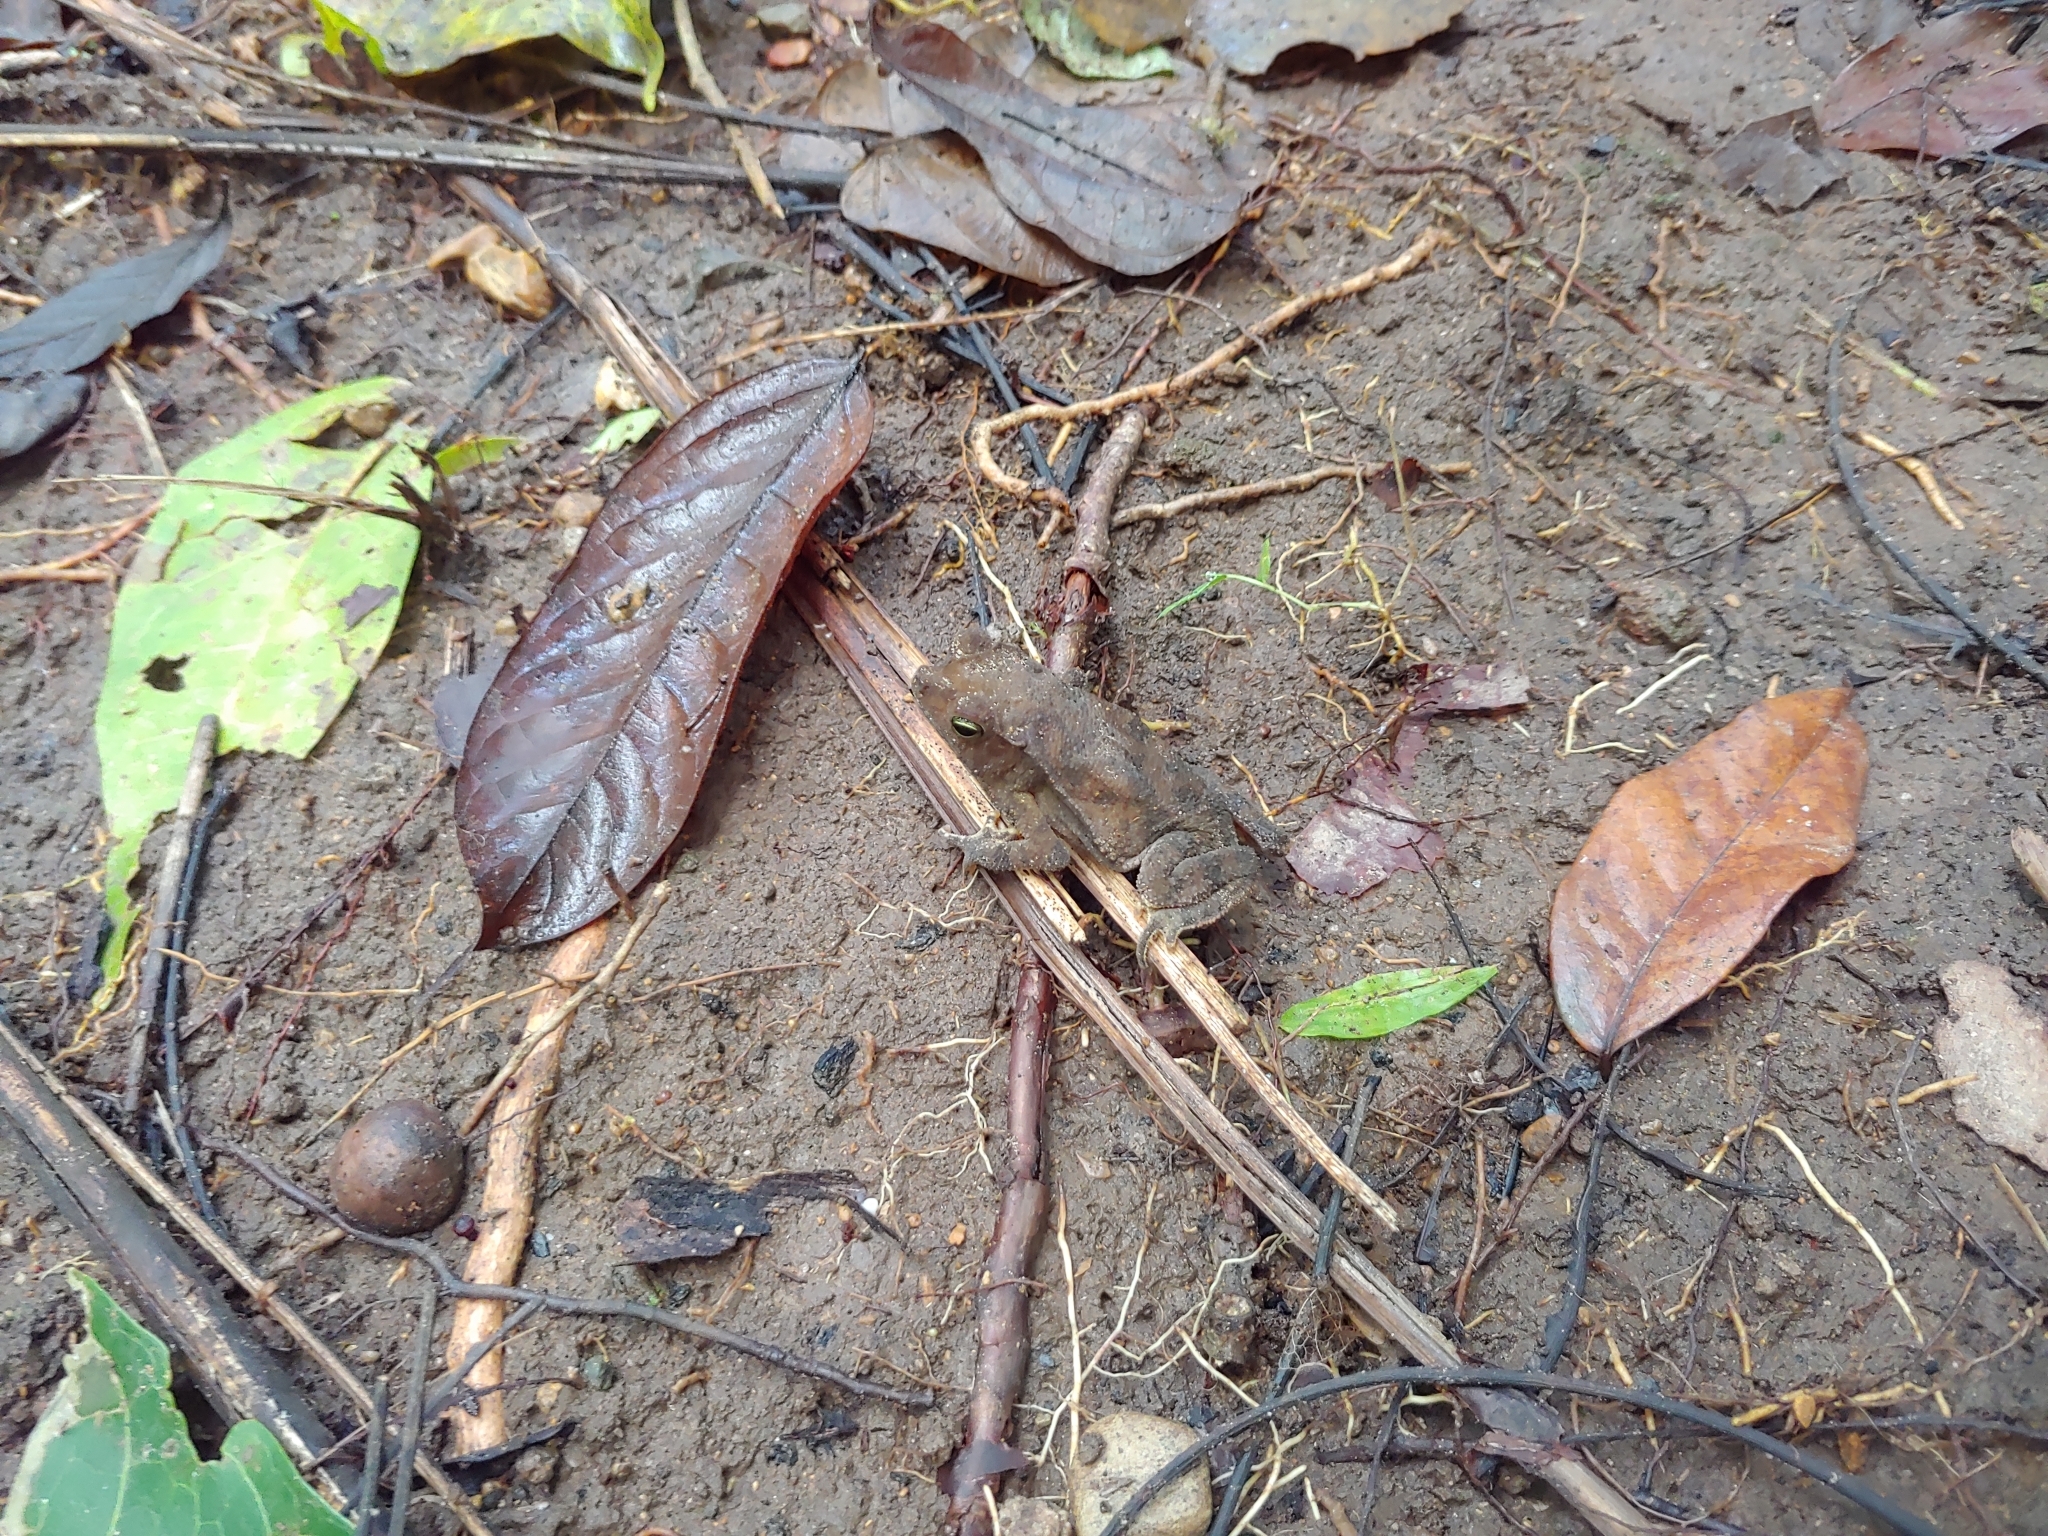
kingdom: Animalia
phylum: Chordata
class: Amphibia
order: Anura
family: Bufonidae
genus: Rhinella
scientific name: Rhinella alata
